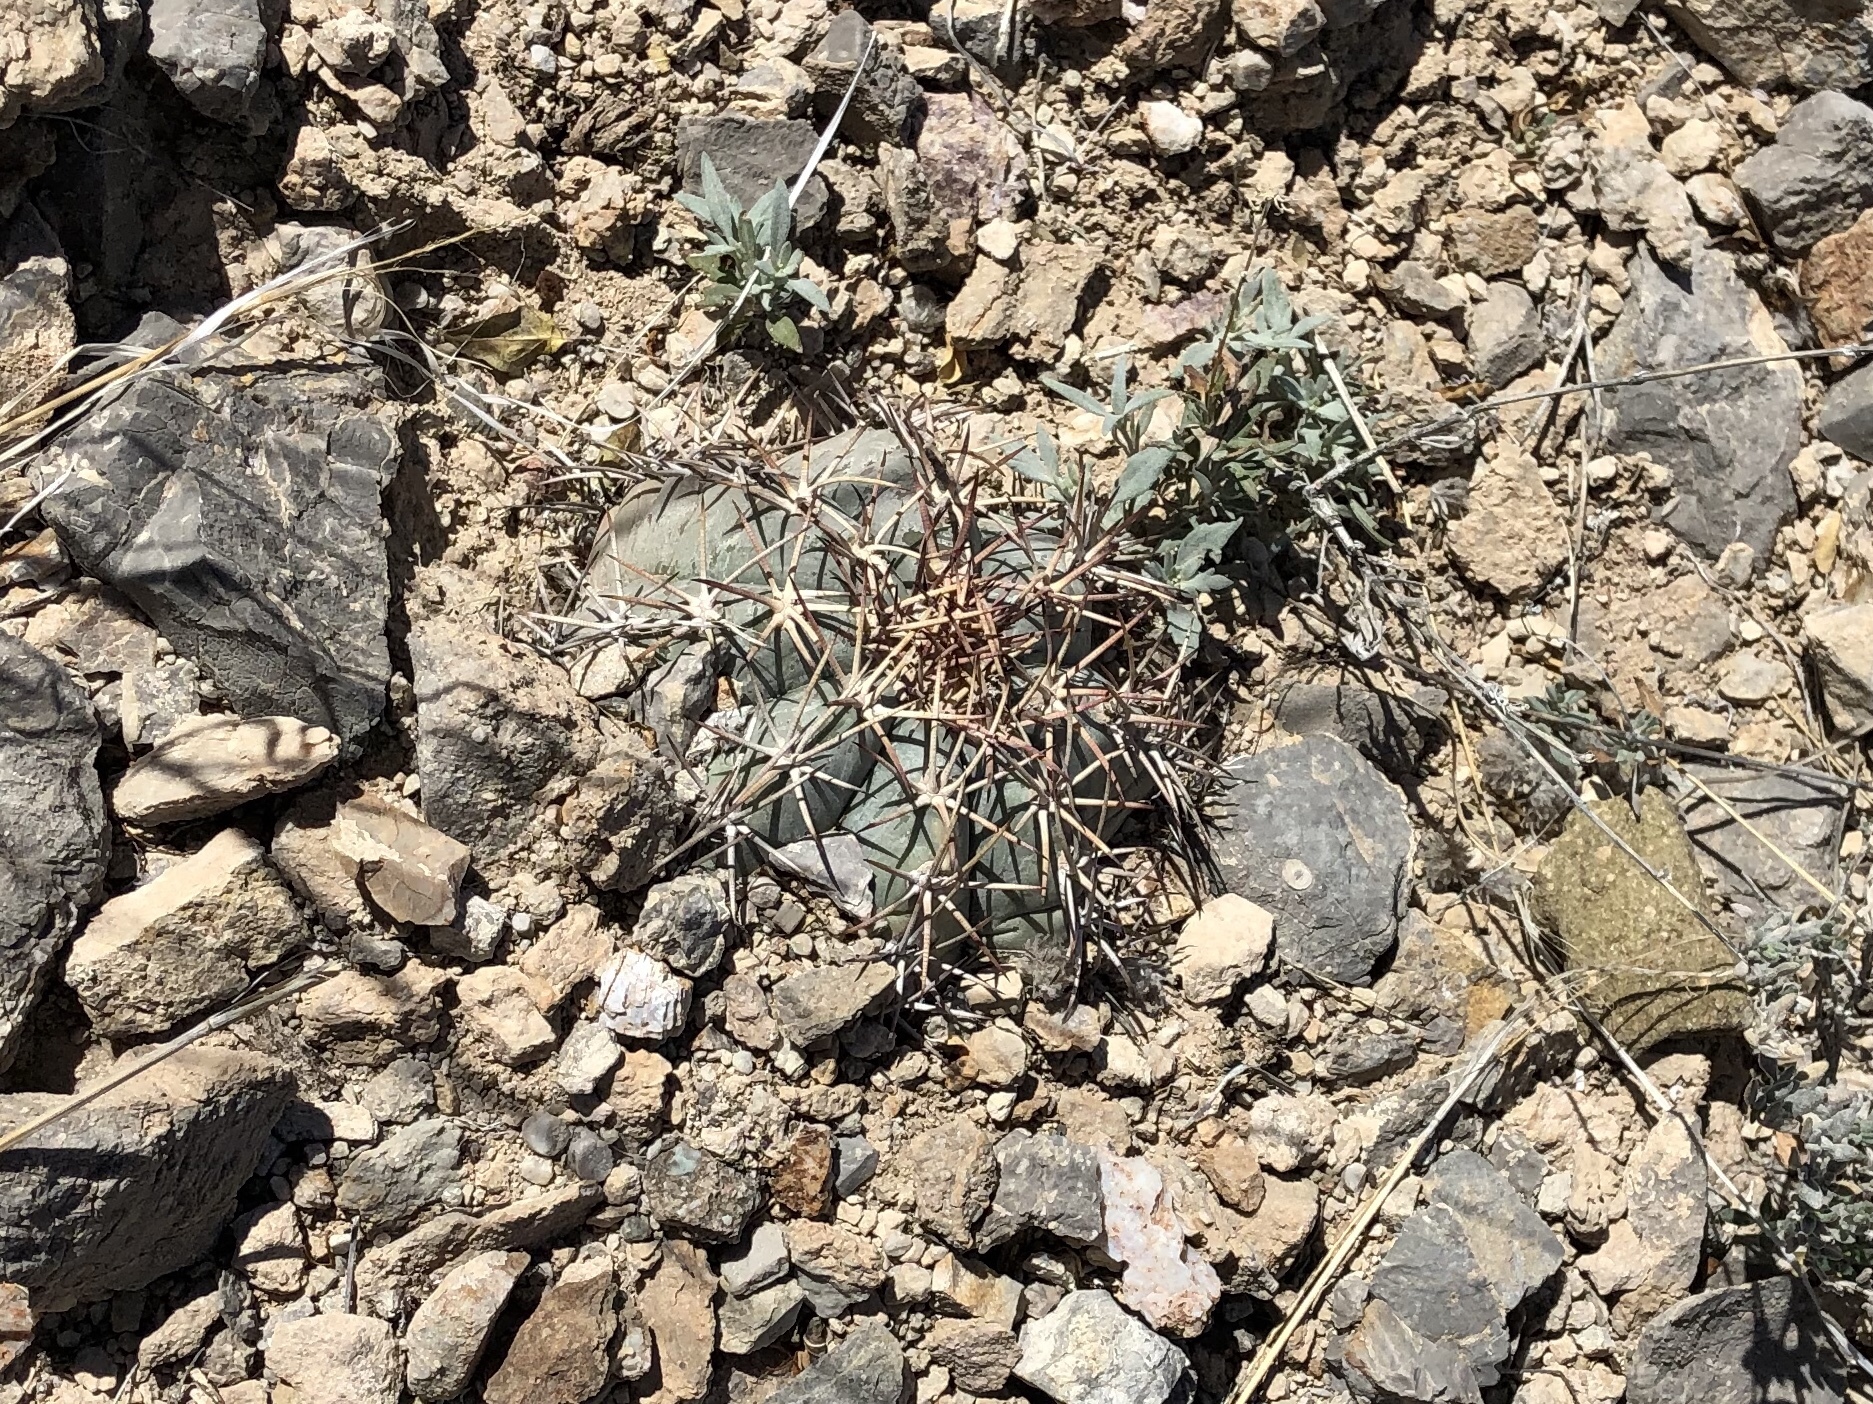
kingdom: Plantae
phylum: Tracheophyta
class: Magnoliopsida
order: Caryophyllales
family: Cactaceae
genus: Echinocactus
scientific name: Echinocactus horizonthalonius
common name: Devilshead
